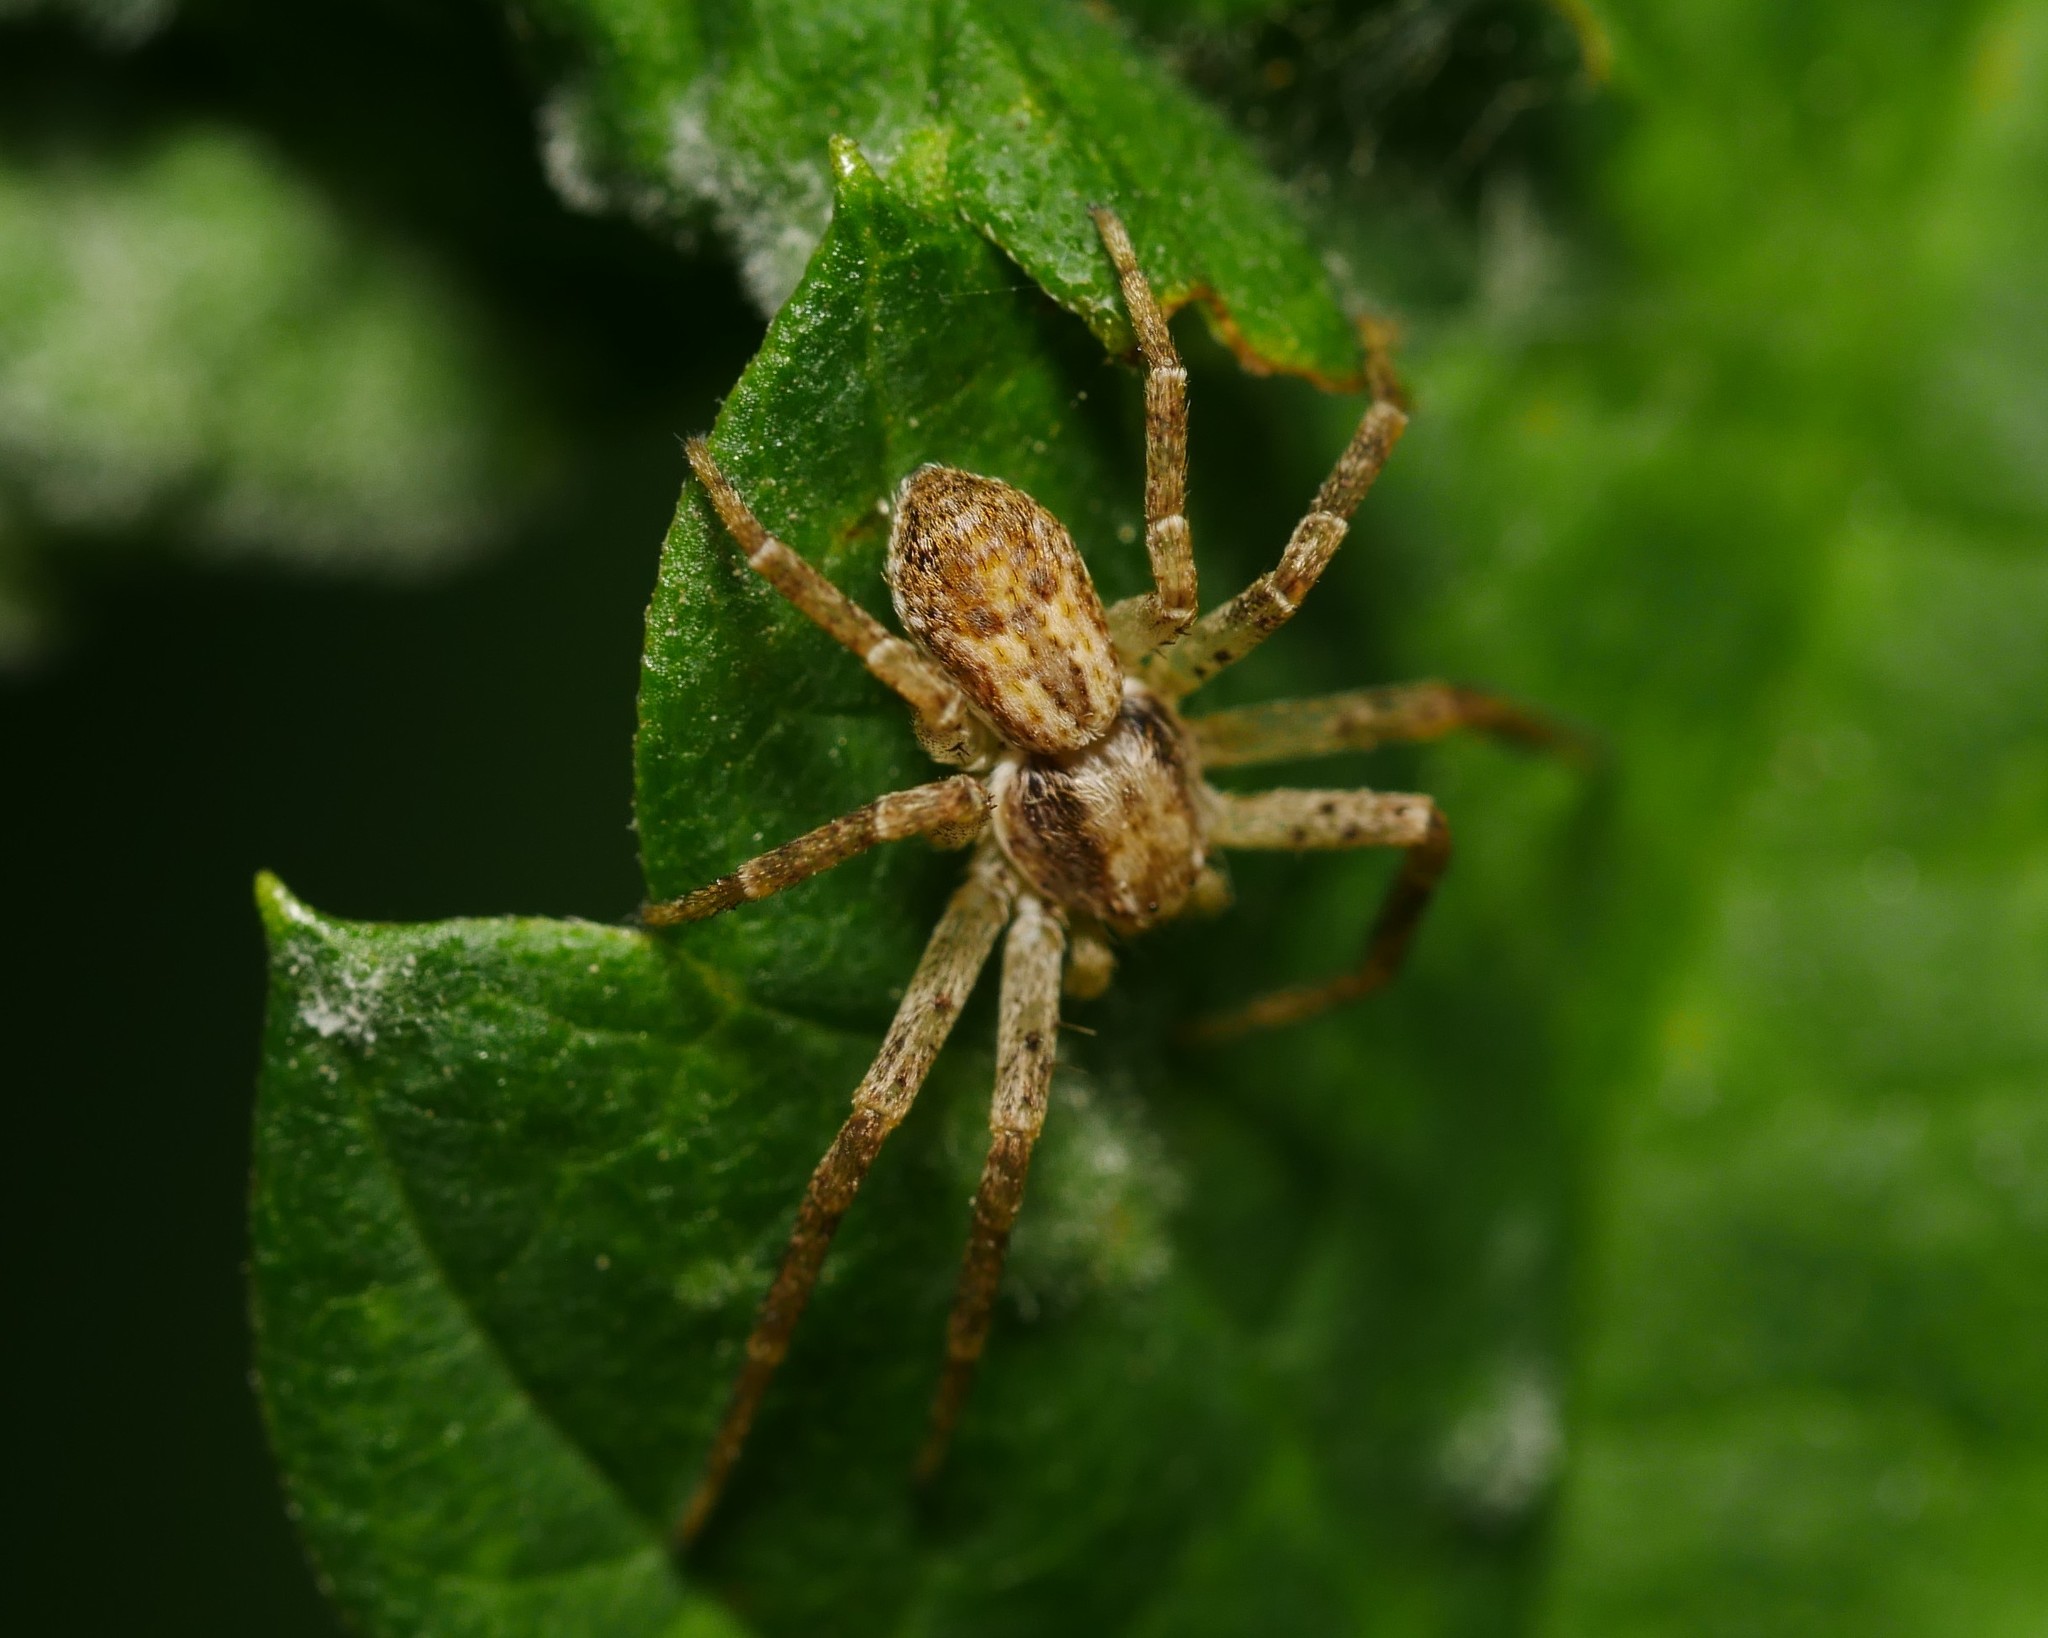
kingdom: Animalia
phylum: Arthropoda
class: Arachnida
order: Araneae
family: Philodromidae
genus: Philodromus
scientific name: Philodromus dispar
